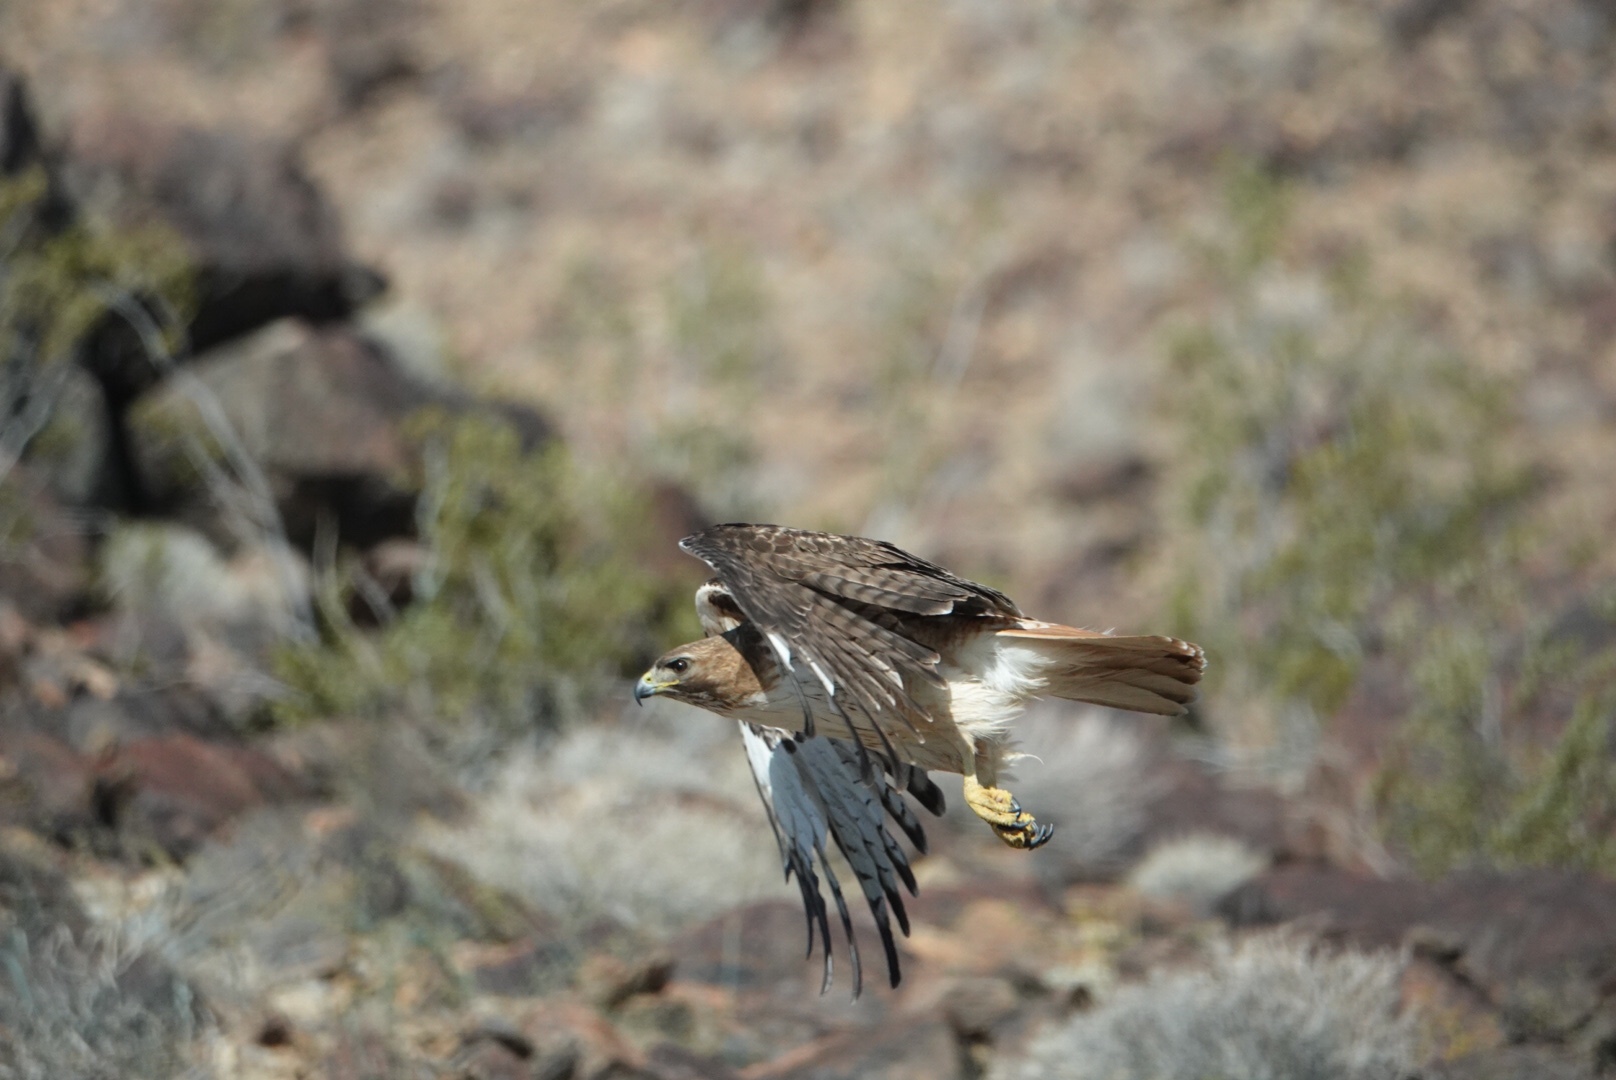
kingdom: Animalia
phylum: Chordata
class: Aves
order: Accipitriformes
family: Accipitridae
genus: Buteo
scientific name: Buteo jamaicensis
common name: Red-tailed hawk
